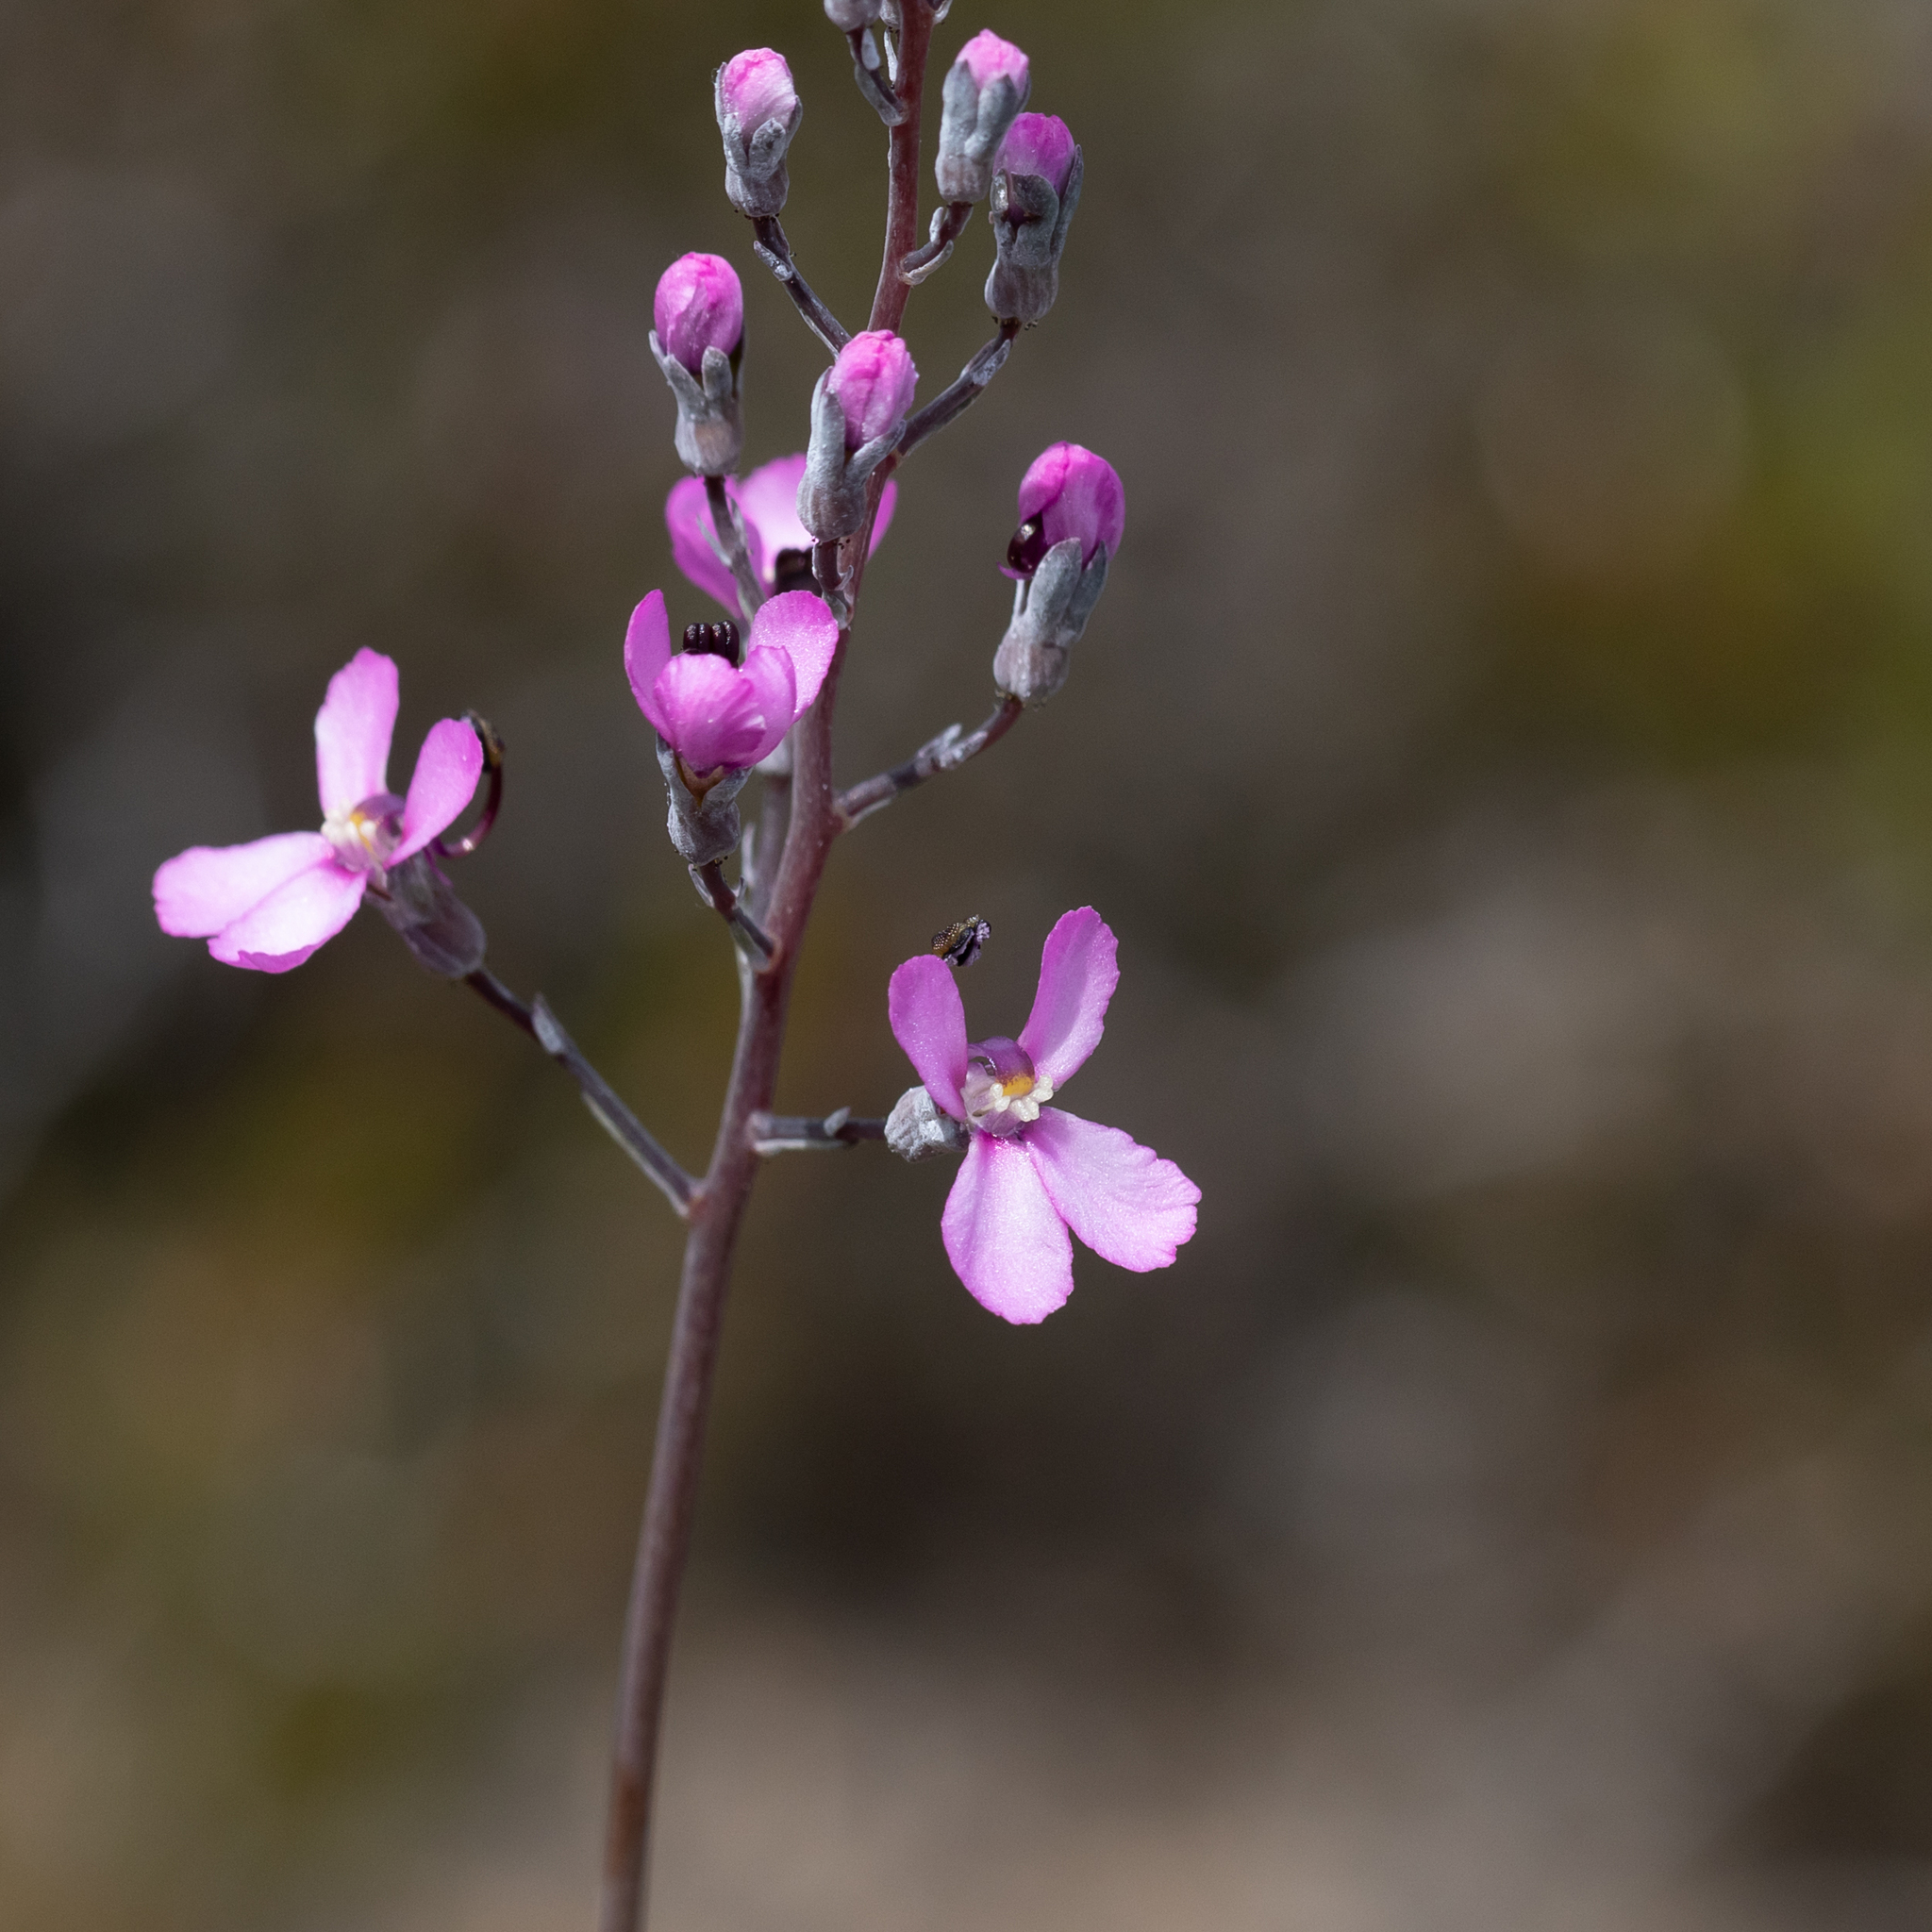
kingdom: Plantae
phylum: Tracheophyta
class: Magnoliopsida
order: Asterales
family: Stylidiaceae
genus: Stylidium
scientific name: Stylidium tenue
